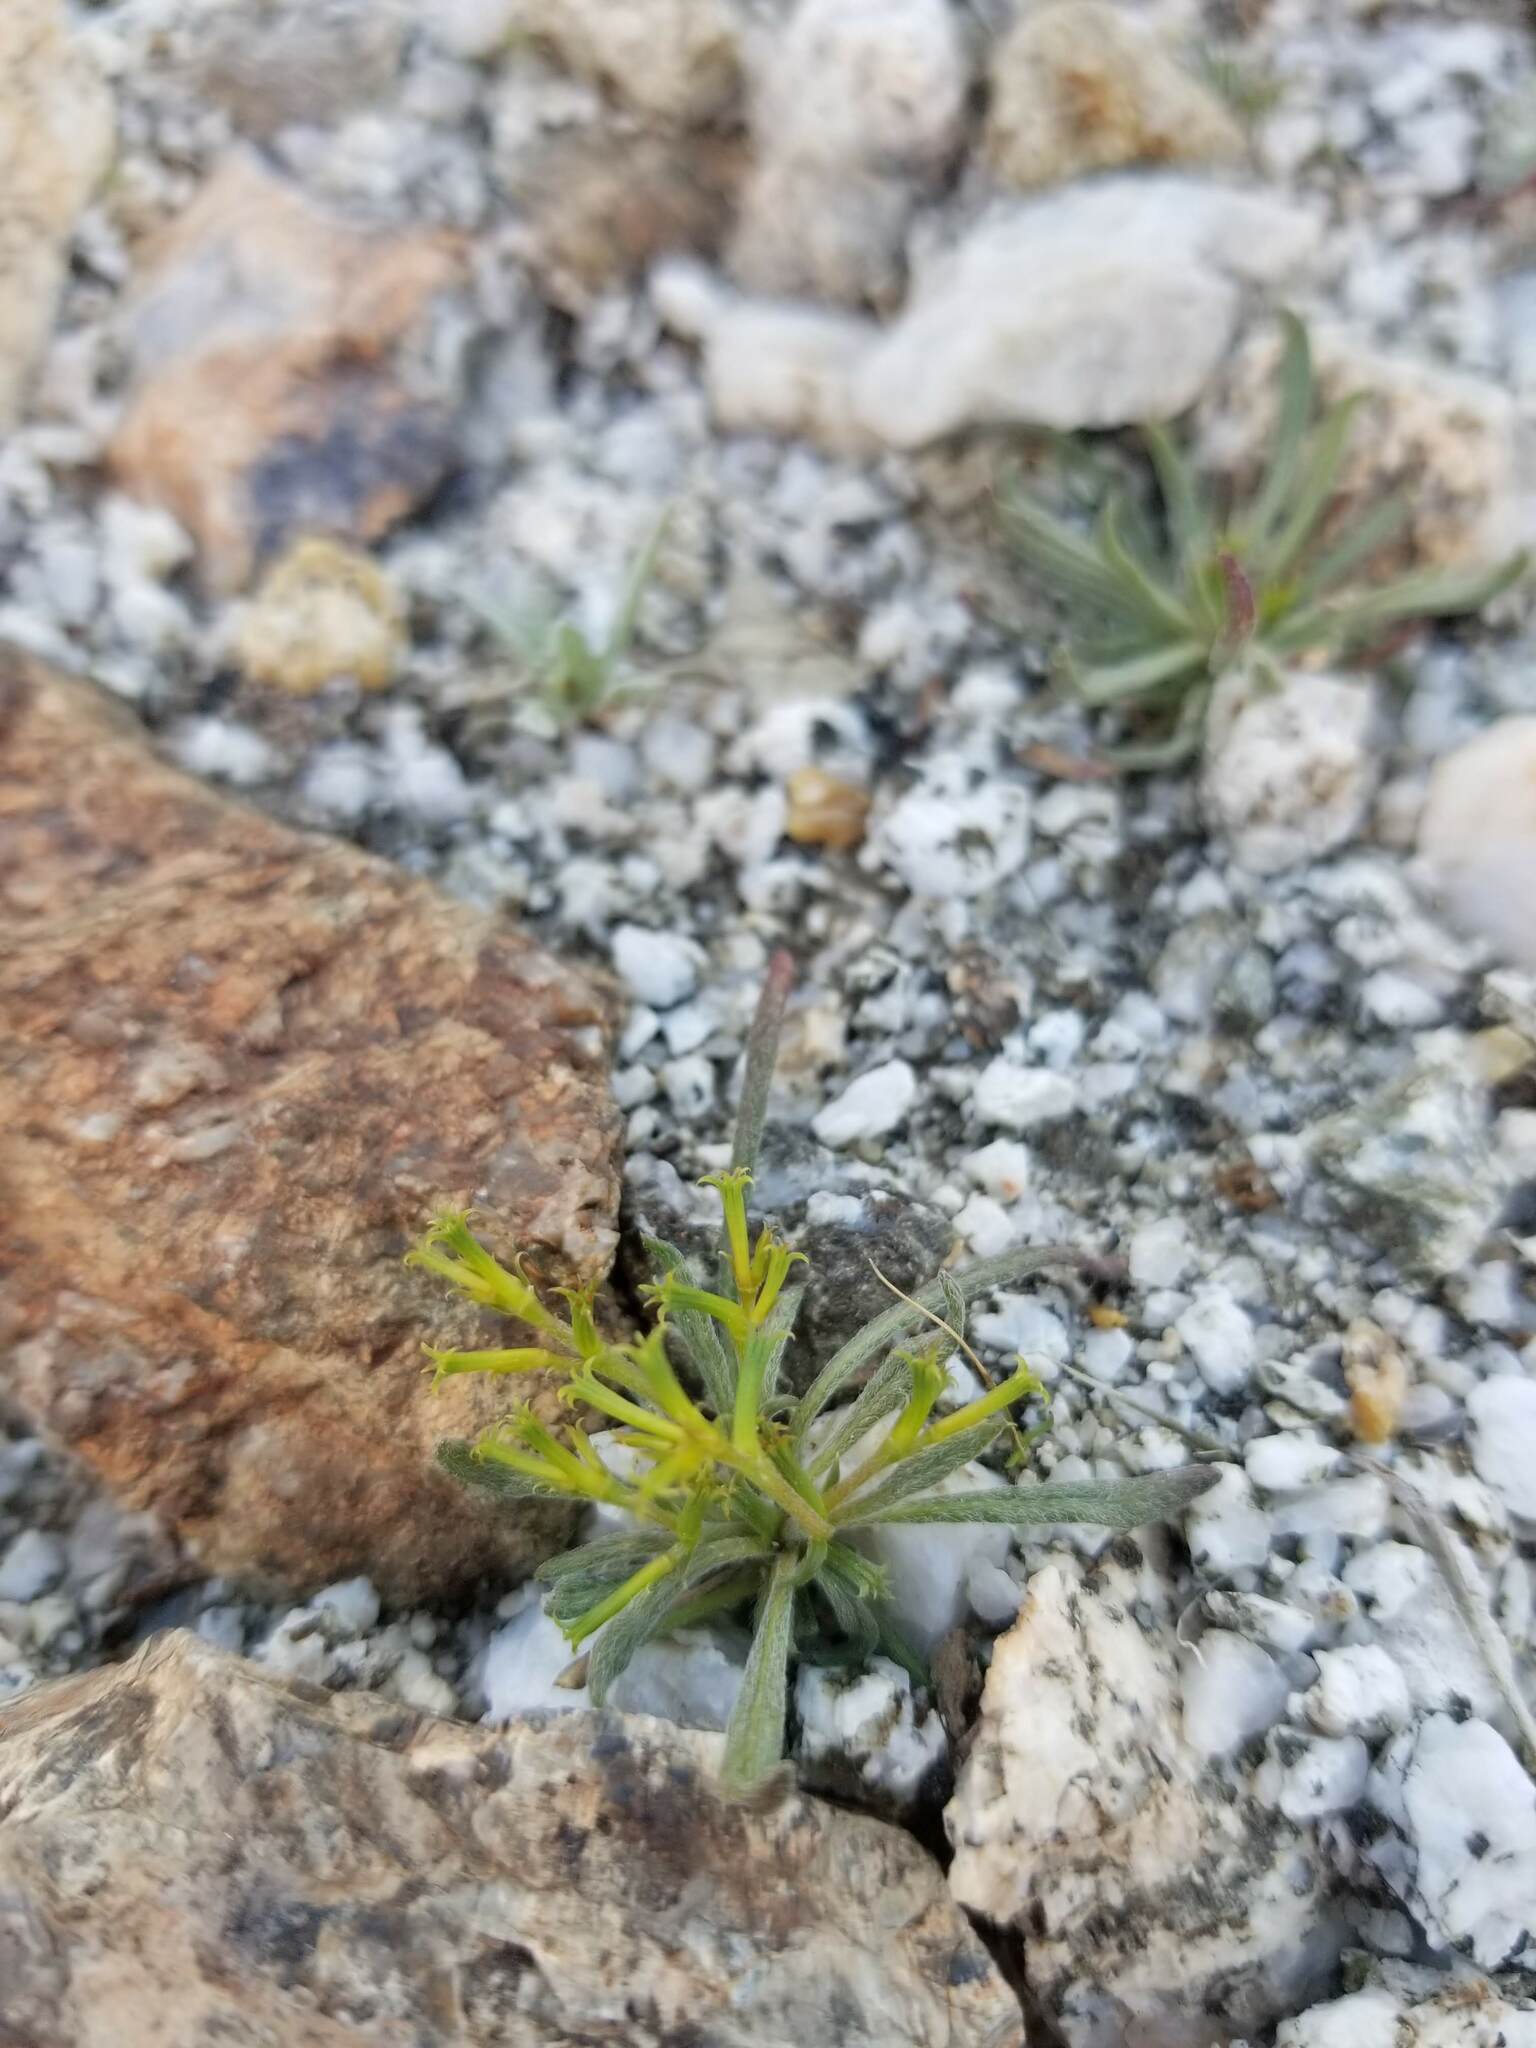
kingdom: Plantae
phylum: Tracheophyta
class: Magnoliopsida
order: Caryophyllales
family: Polygonaceae
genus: Chorizanthe
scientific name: Chorizanthe brevicornu
